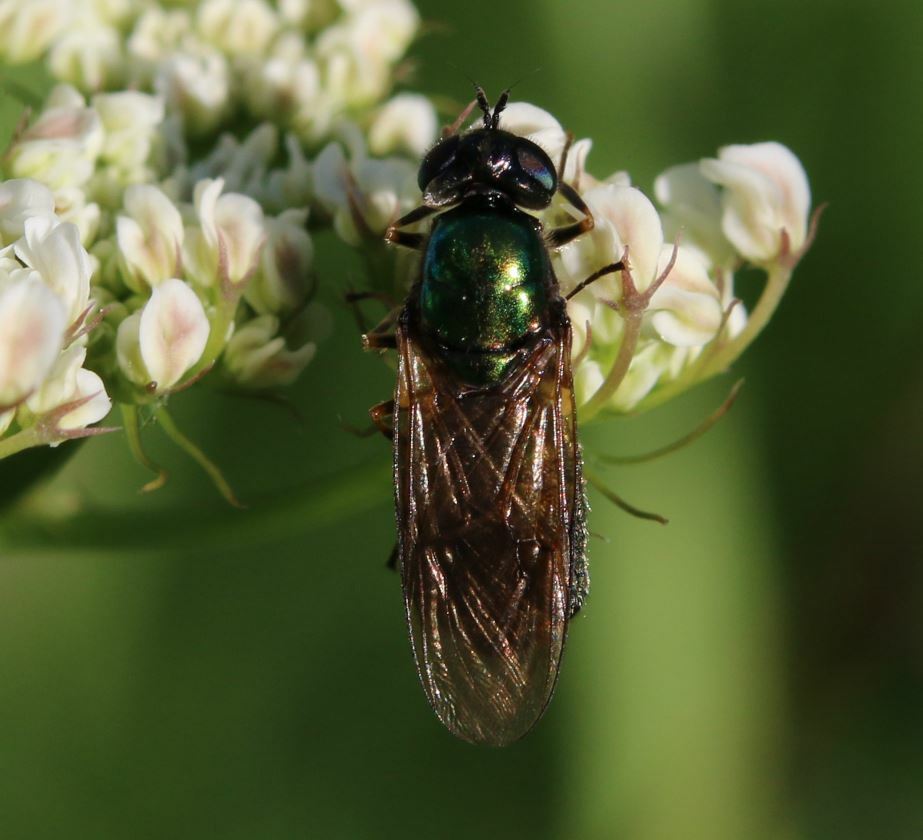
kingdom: Animalia
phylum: Arthropoda
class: Insecta
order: Diptera
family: Stratiomyidae
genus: Chloromyia
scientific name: Chloromyia formosa
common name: Soldier fly
